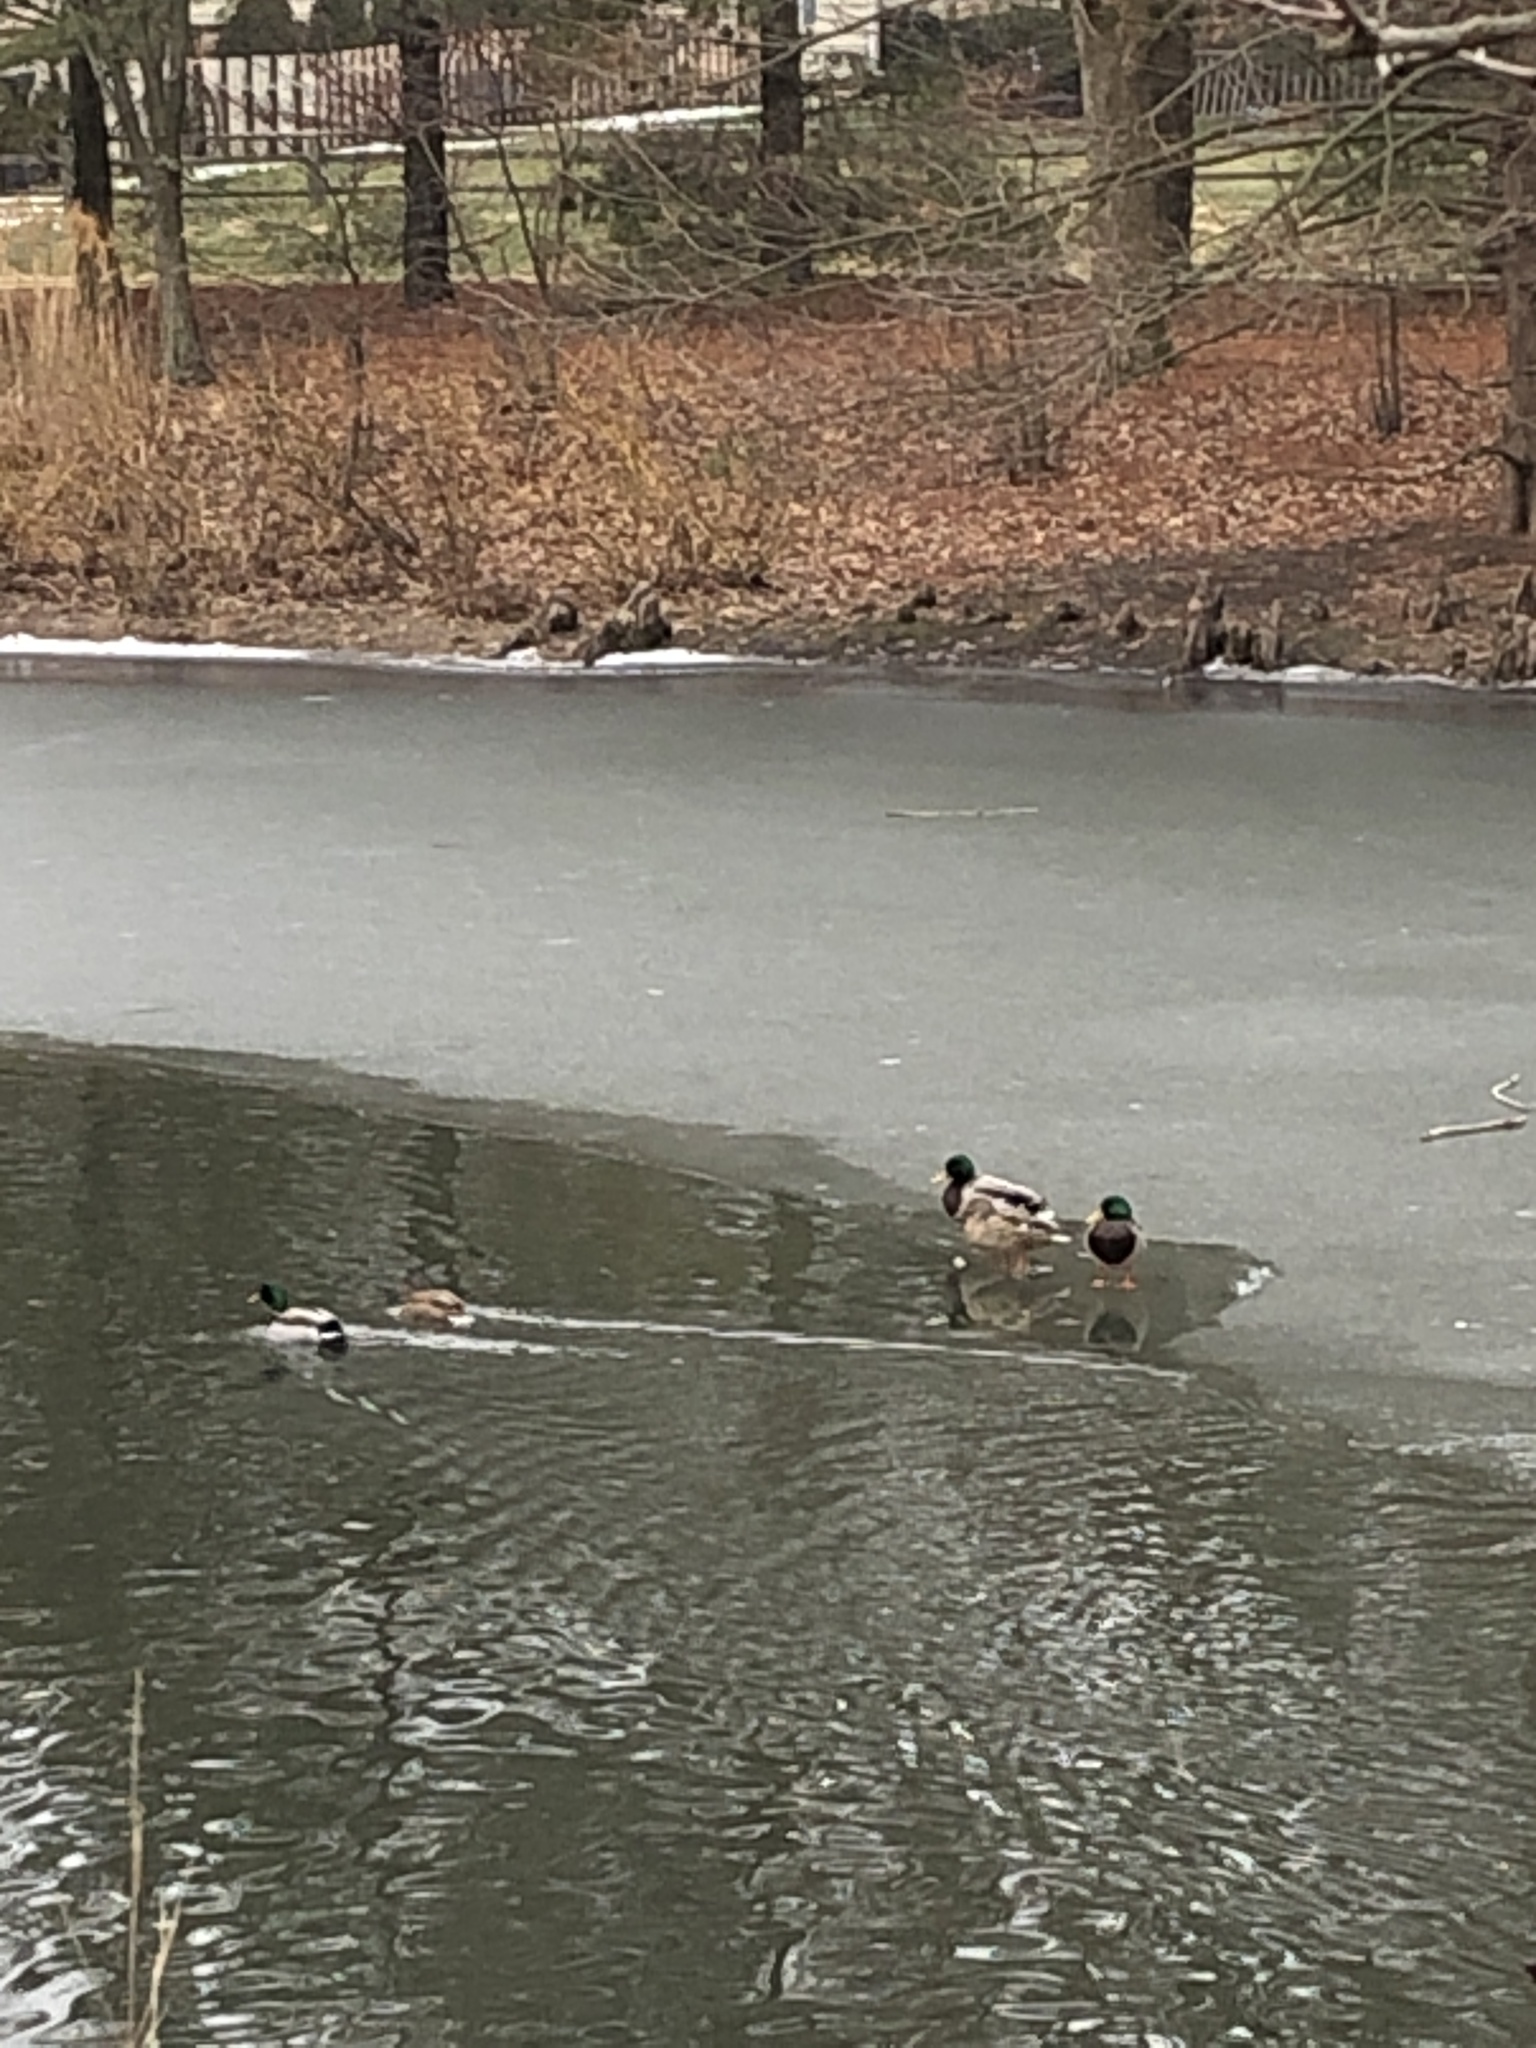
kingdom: Animalia
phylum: Chordata
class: Aves
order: Anseriformes
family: Anatidae
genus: Anas
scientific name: Anas platyrhynchos
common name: Mallard
